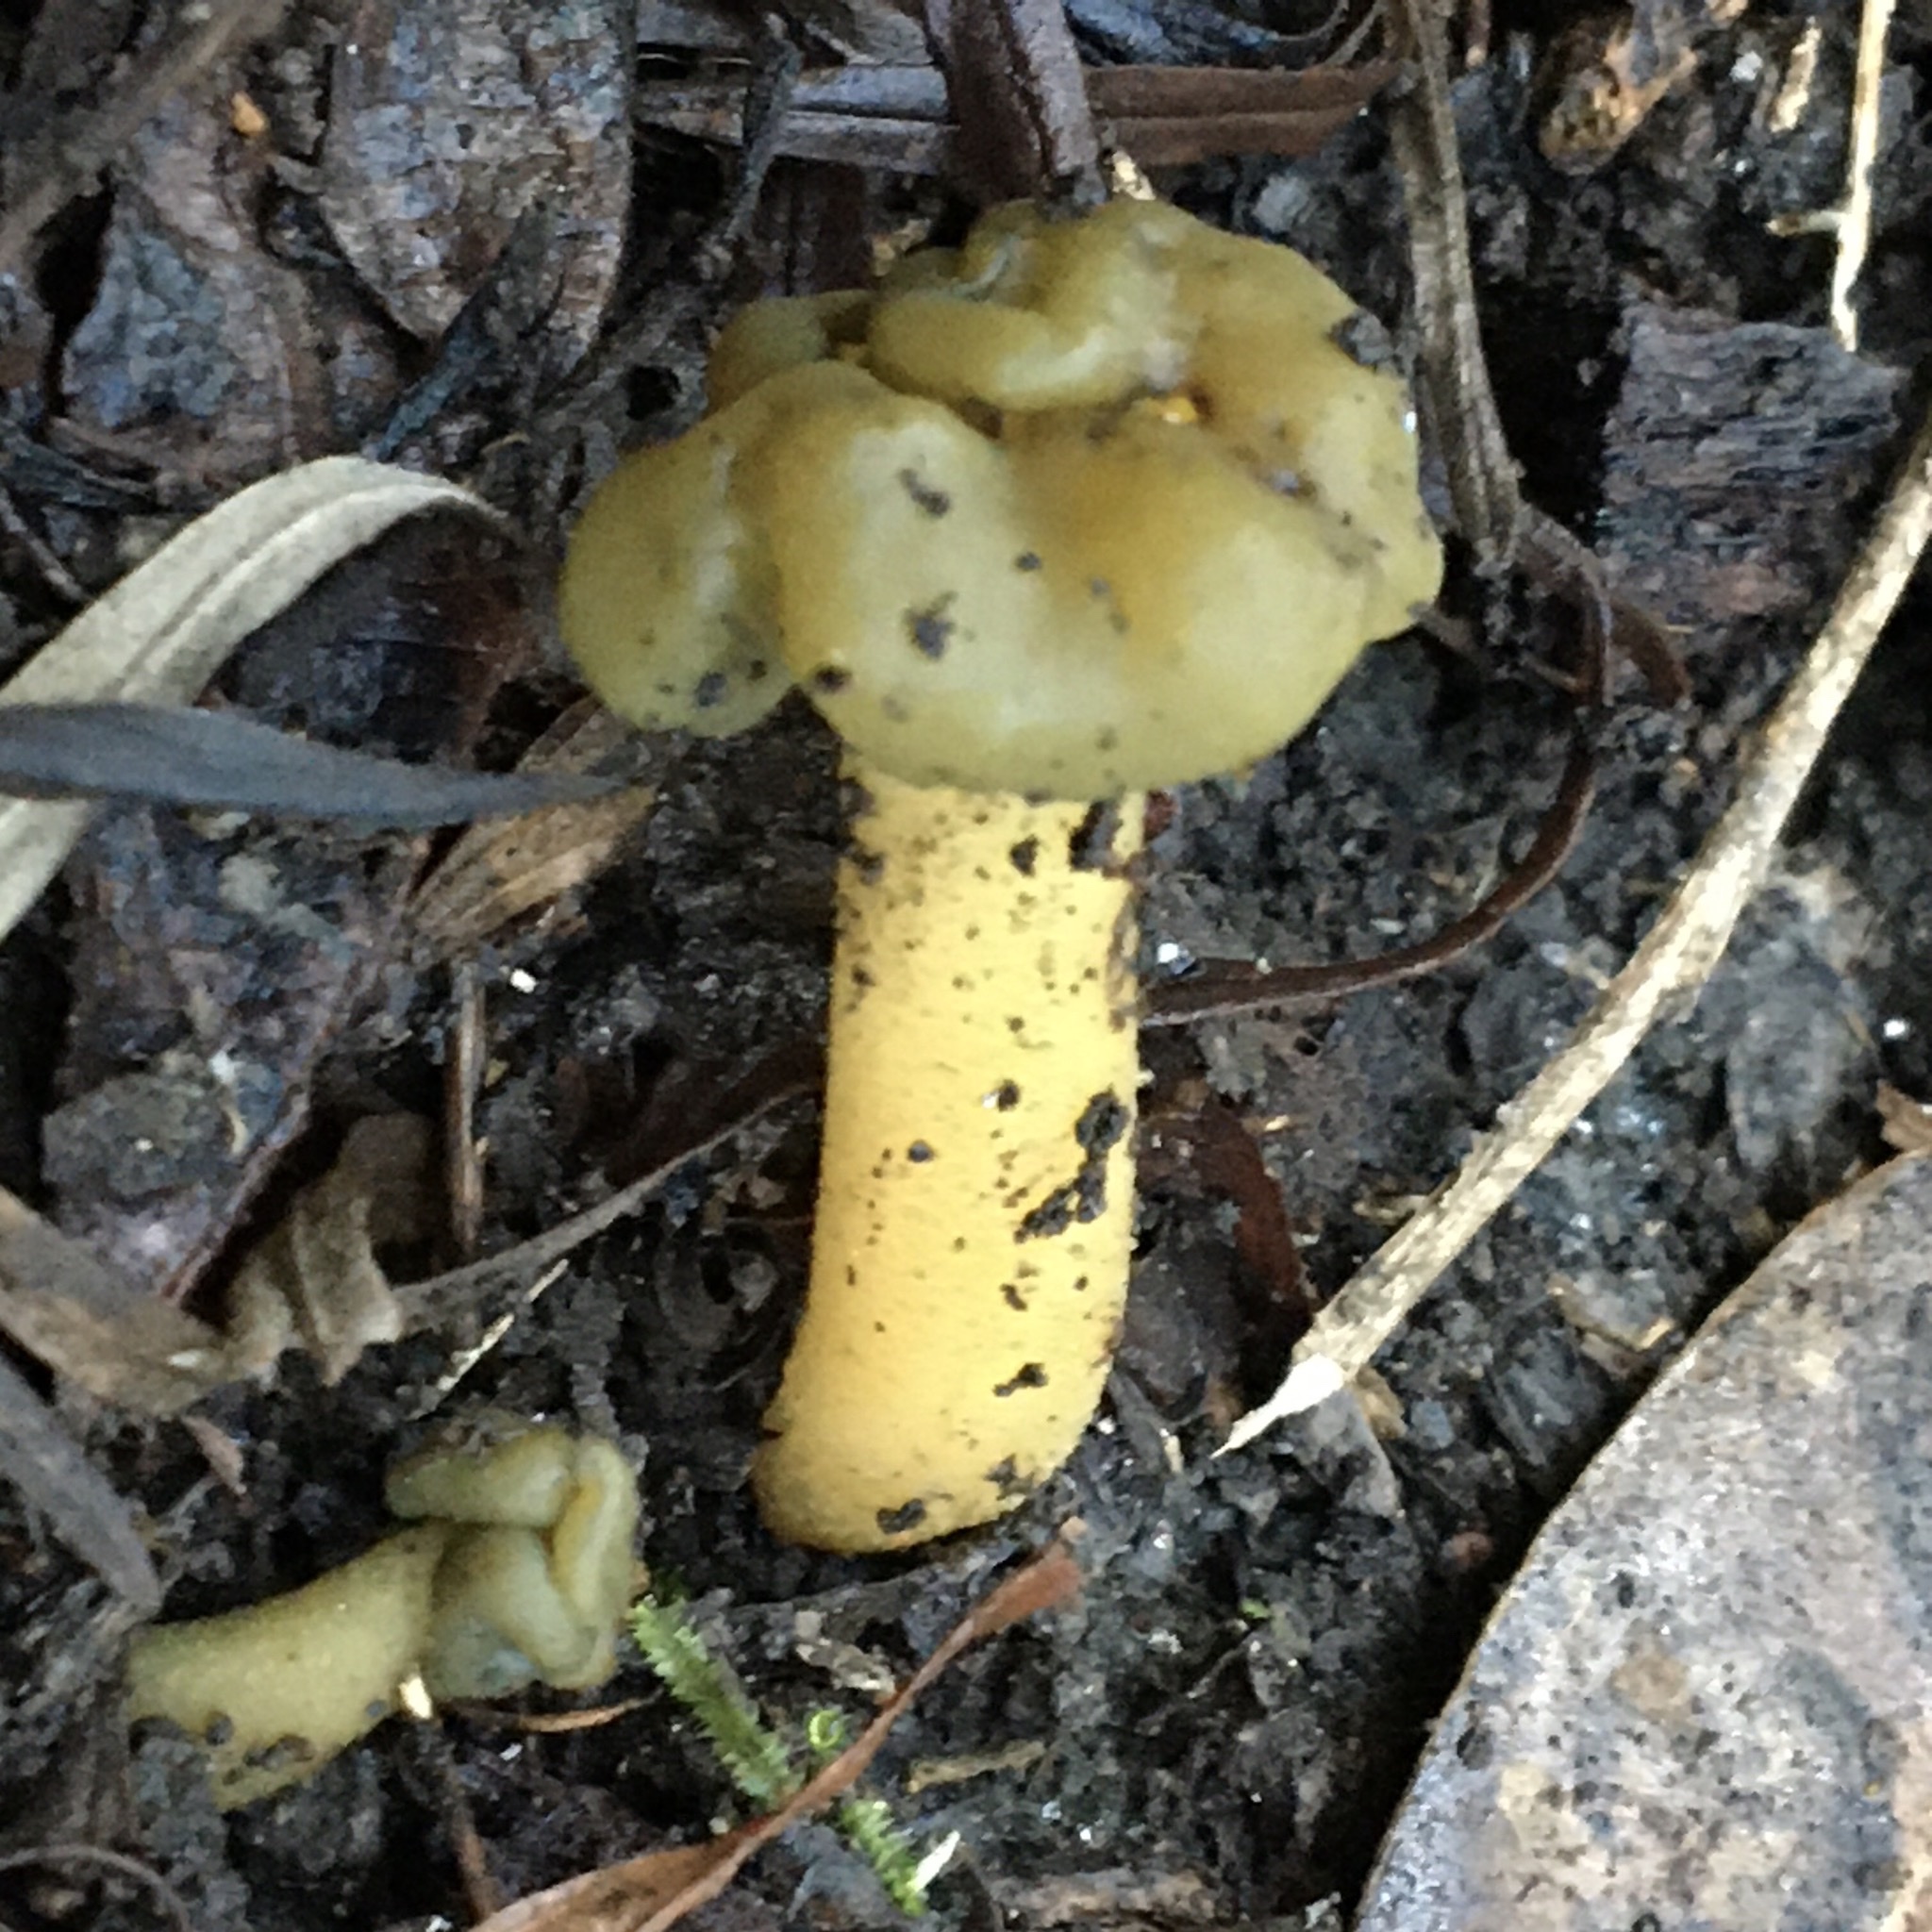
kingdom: Fungi
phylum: Ascomycota
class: Leotiomycetes
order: Leotiales
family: Leotiaceae
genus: Leotia
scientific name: Leotia lubrica
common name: Jellybaby
